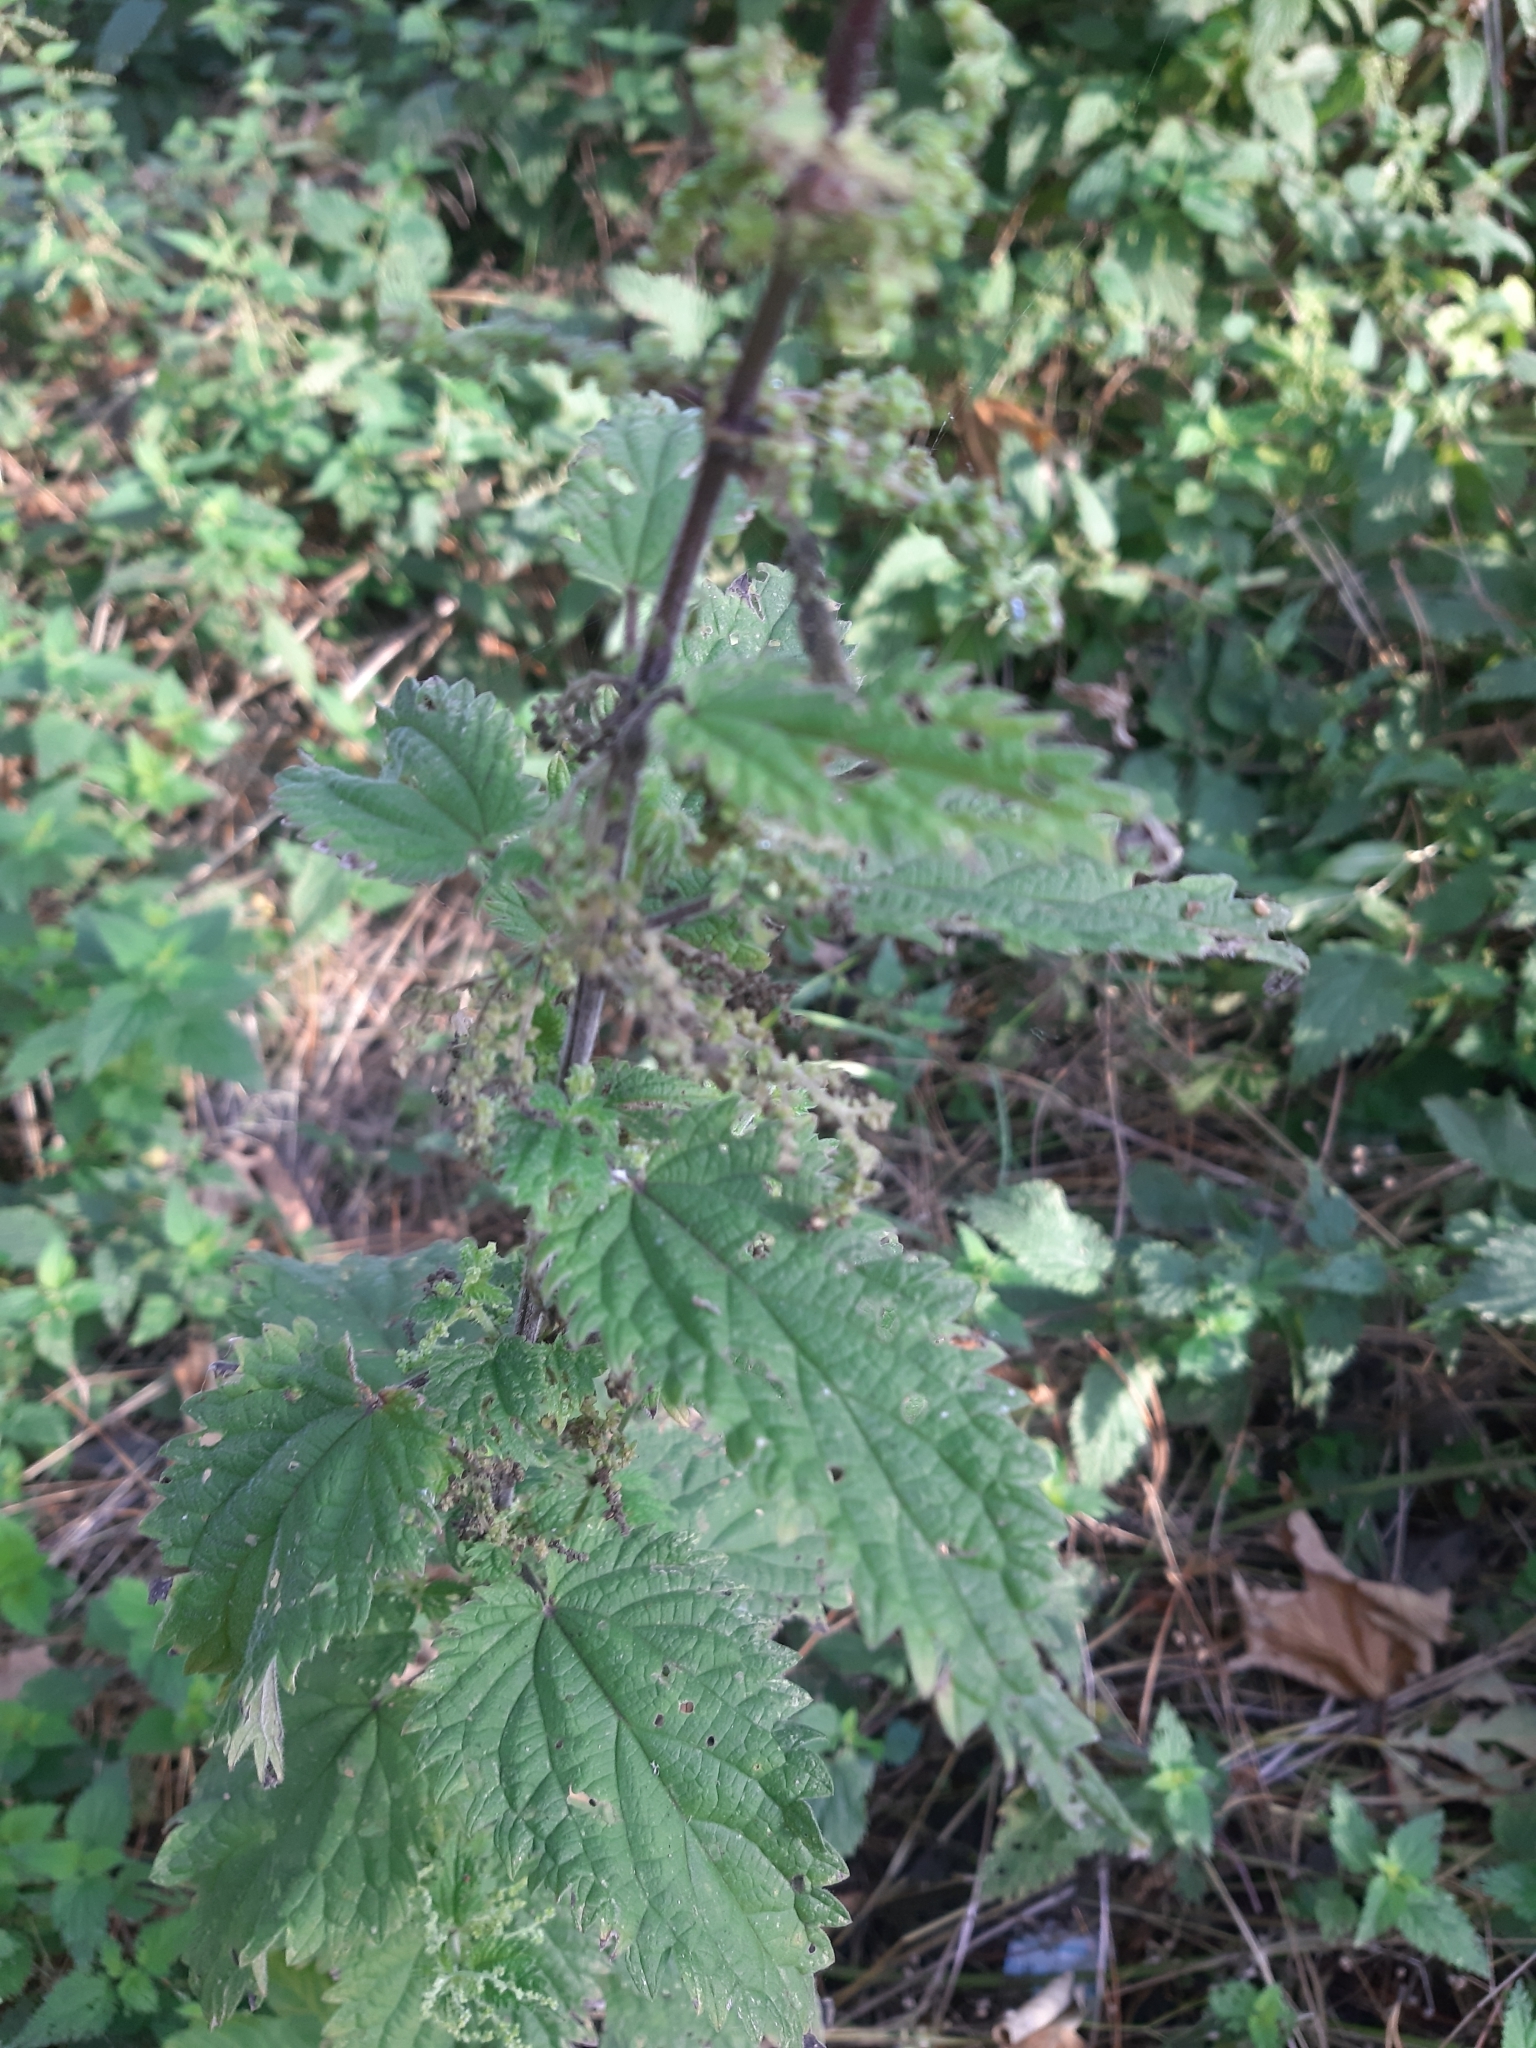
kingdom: Plantae
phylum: Tracheophyta
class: Magnoliopsida
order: Rosales
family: Urticaceae
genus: Urtica
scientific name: Urtica dioica
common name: Common nettle
